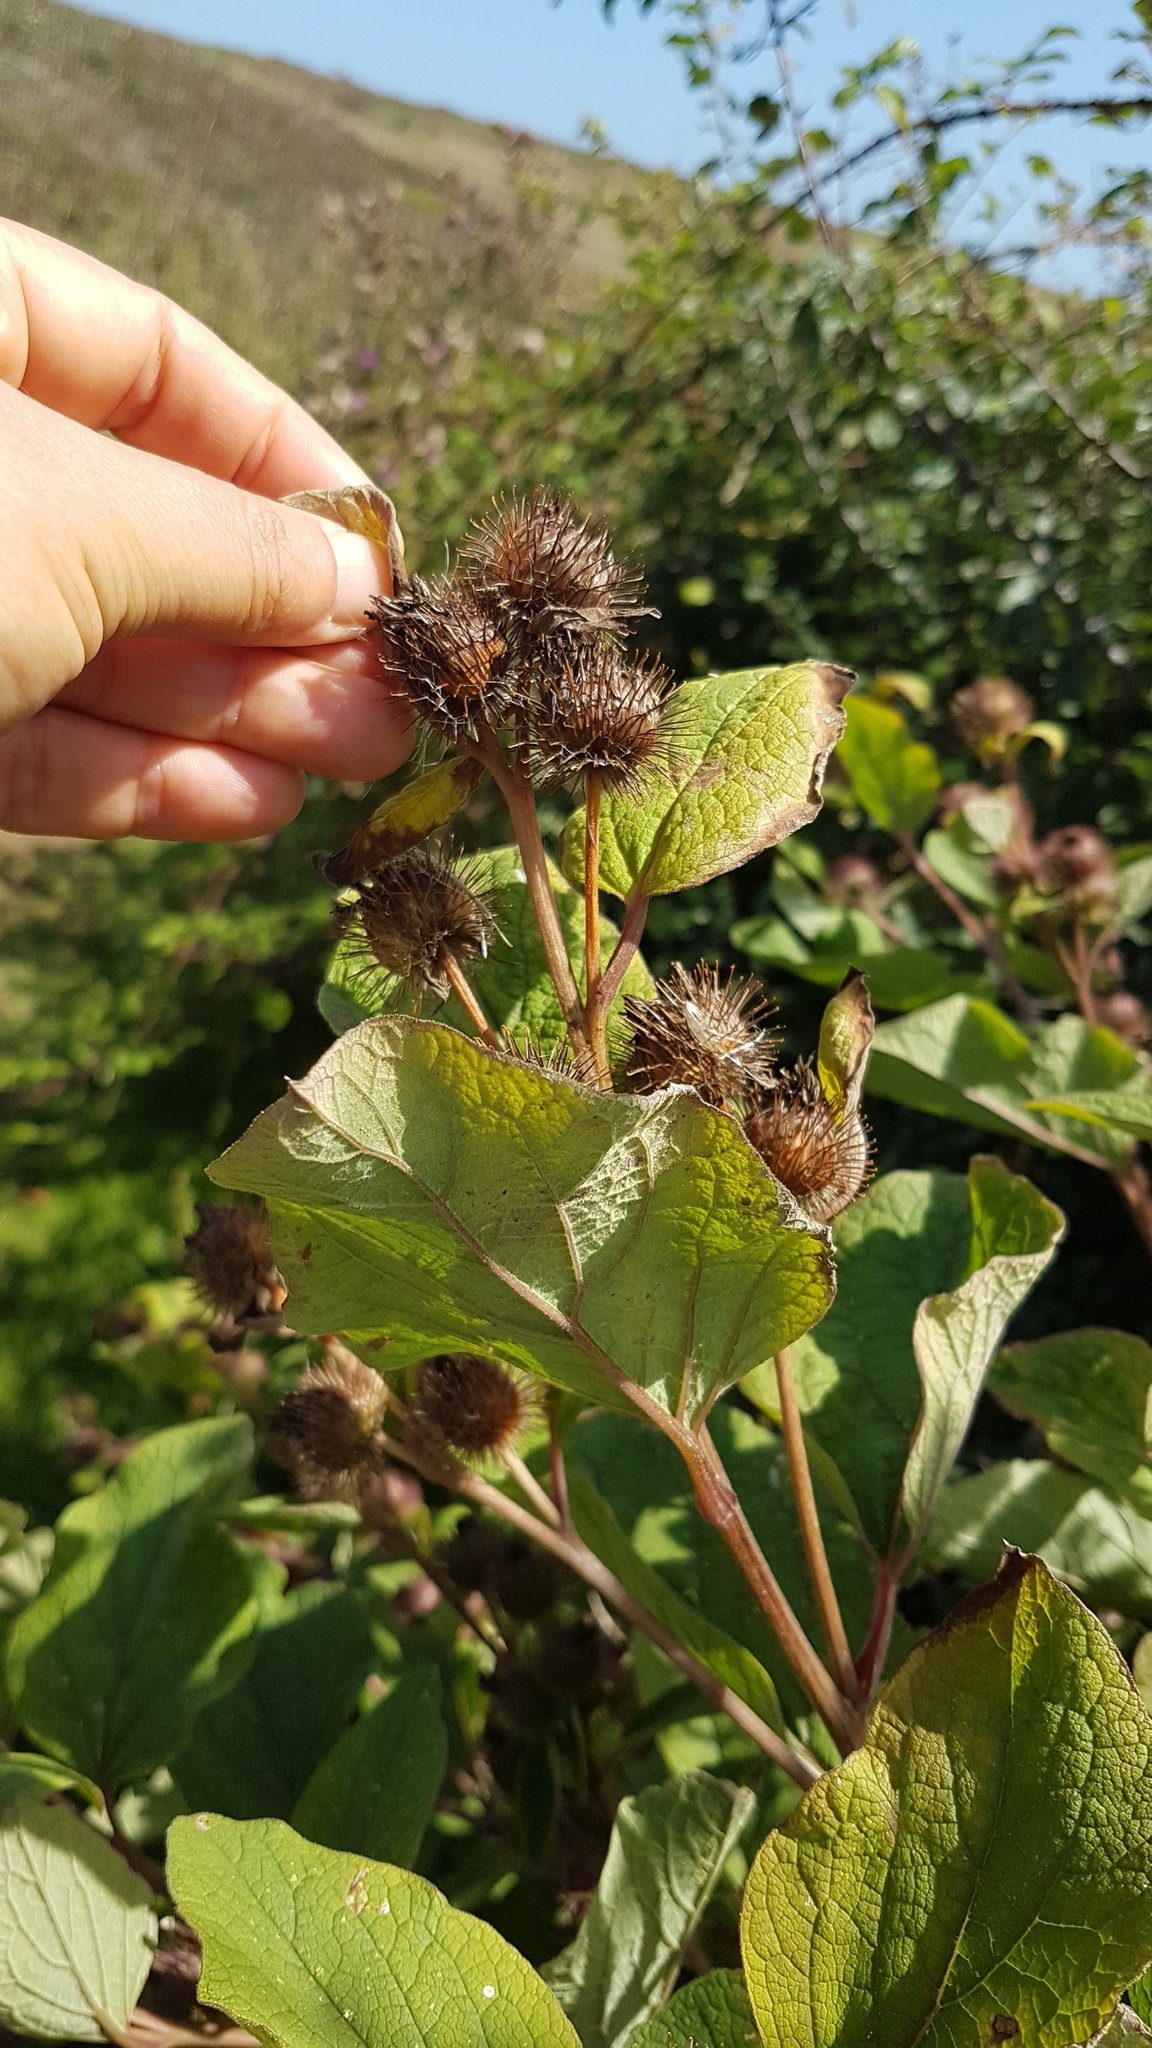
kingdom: Plantae
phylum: Tracheophyta
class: Magnoliopsida
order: Asterales
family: Asteraceae
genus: Arctium
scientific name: Arctium minus
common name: Lesser burdock
